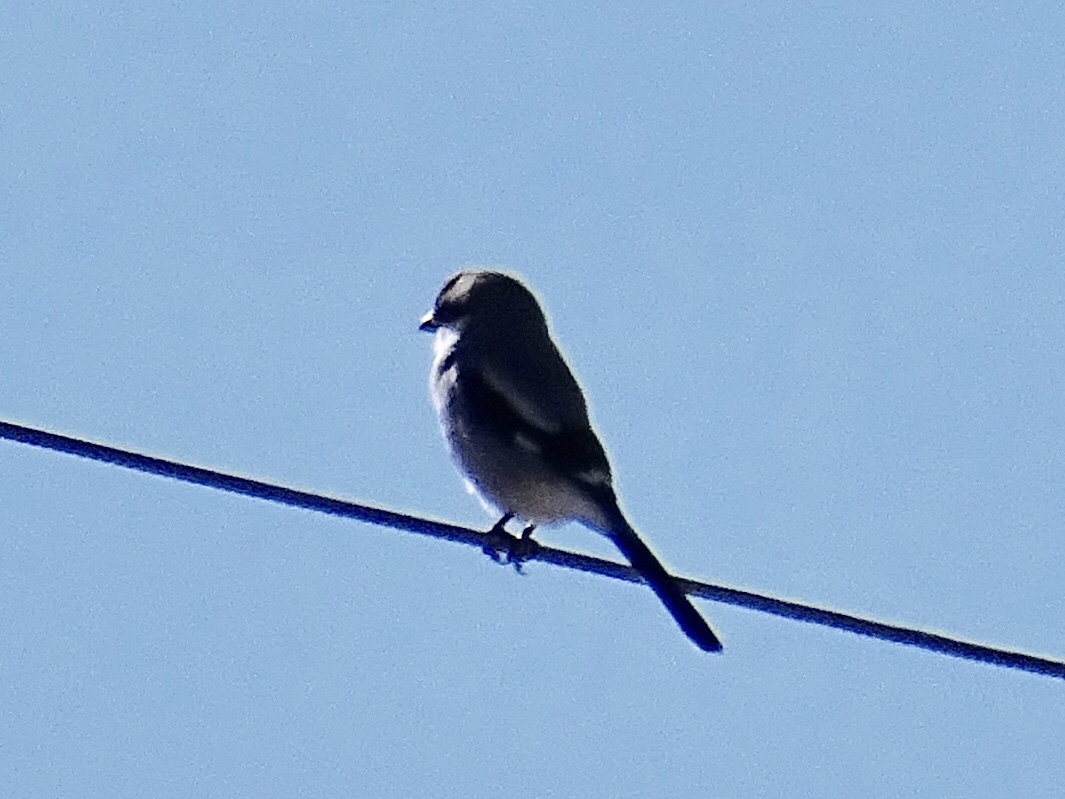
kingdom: Animalia
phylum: Chordata
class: Aves
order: Passeriformes
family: Laniidae
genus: Lanius
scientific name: Lanius ludovicianus
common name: Loggerhead shrike
